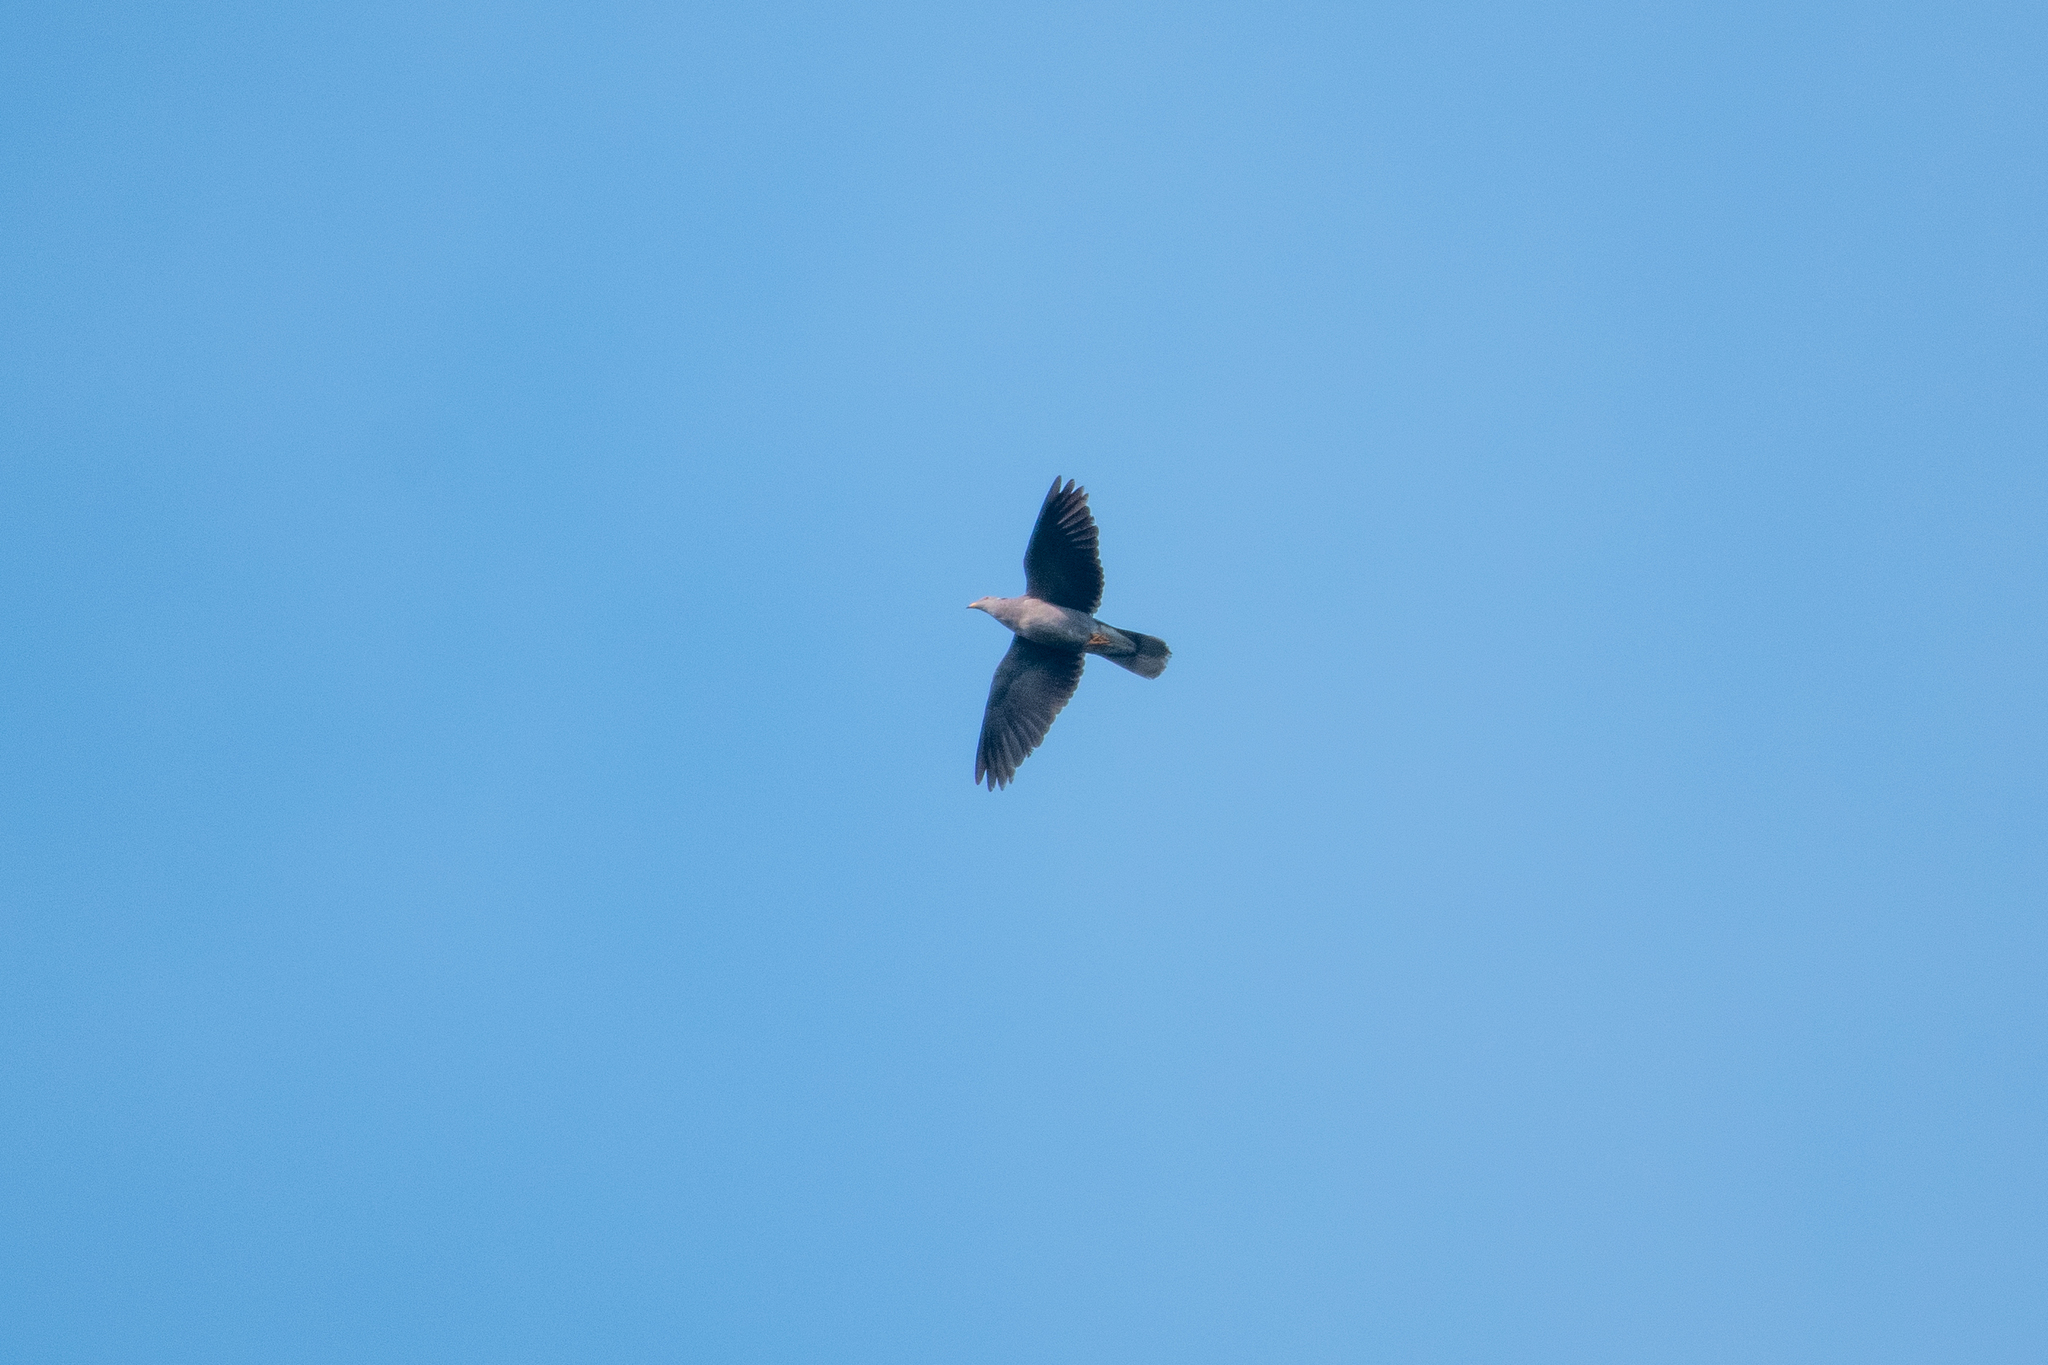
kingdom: Animalia
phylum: Chordata
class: Aves
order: Columbiformes
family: Columbidae
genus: Patagioenas
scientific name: Patagioenas fasciata
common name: Band-tailed pigeon
